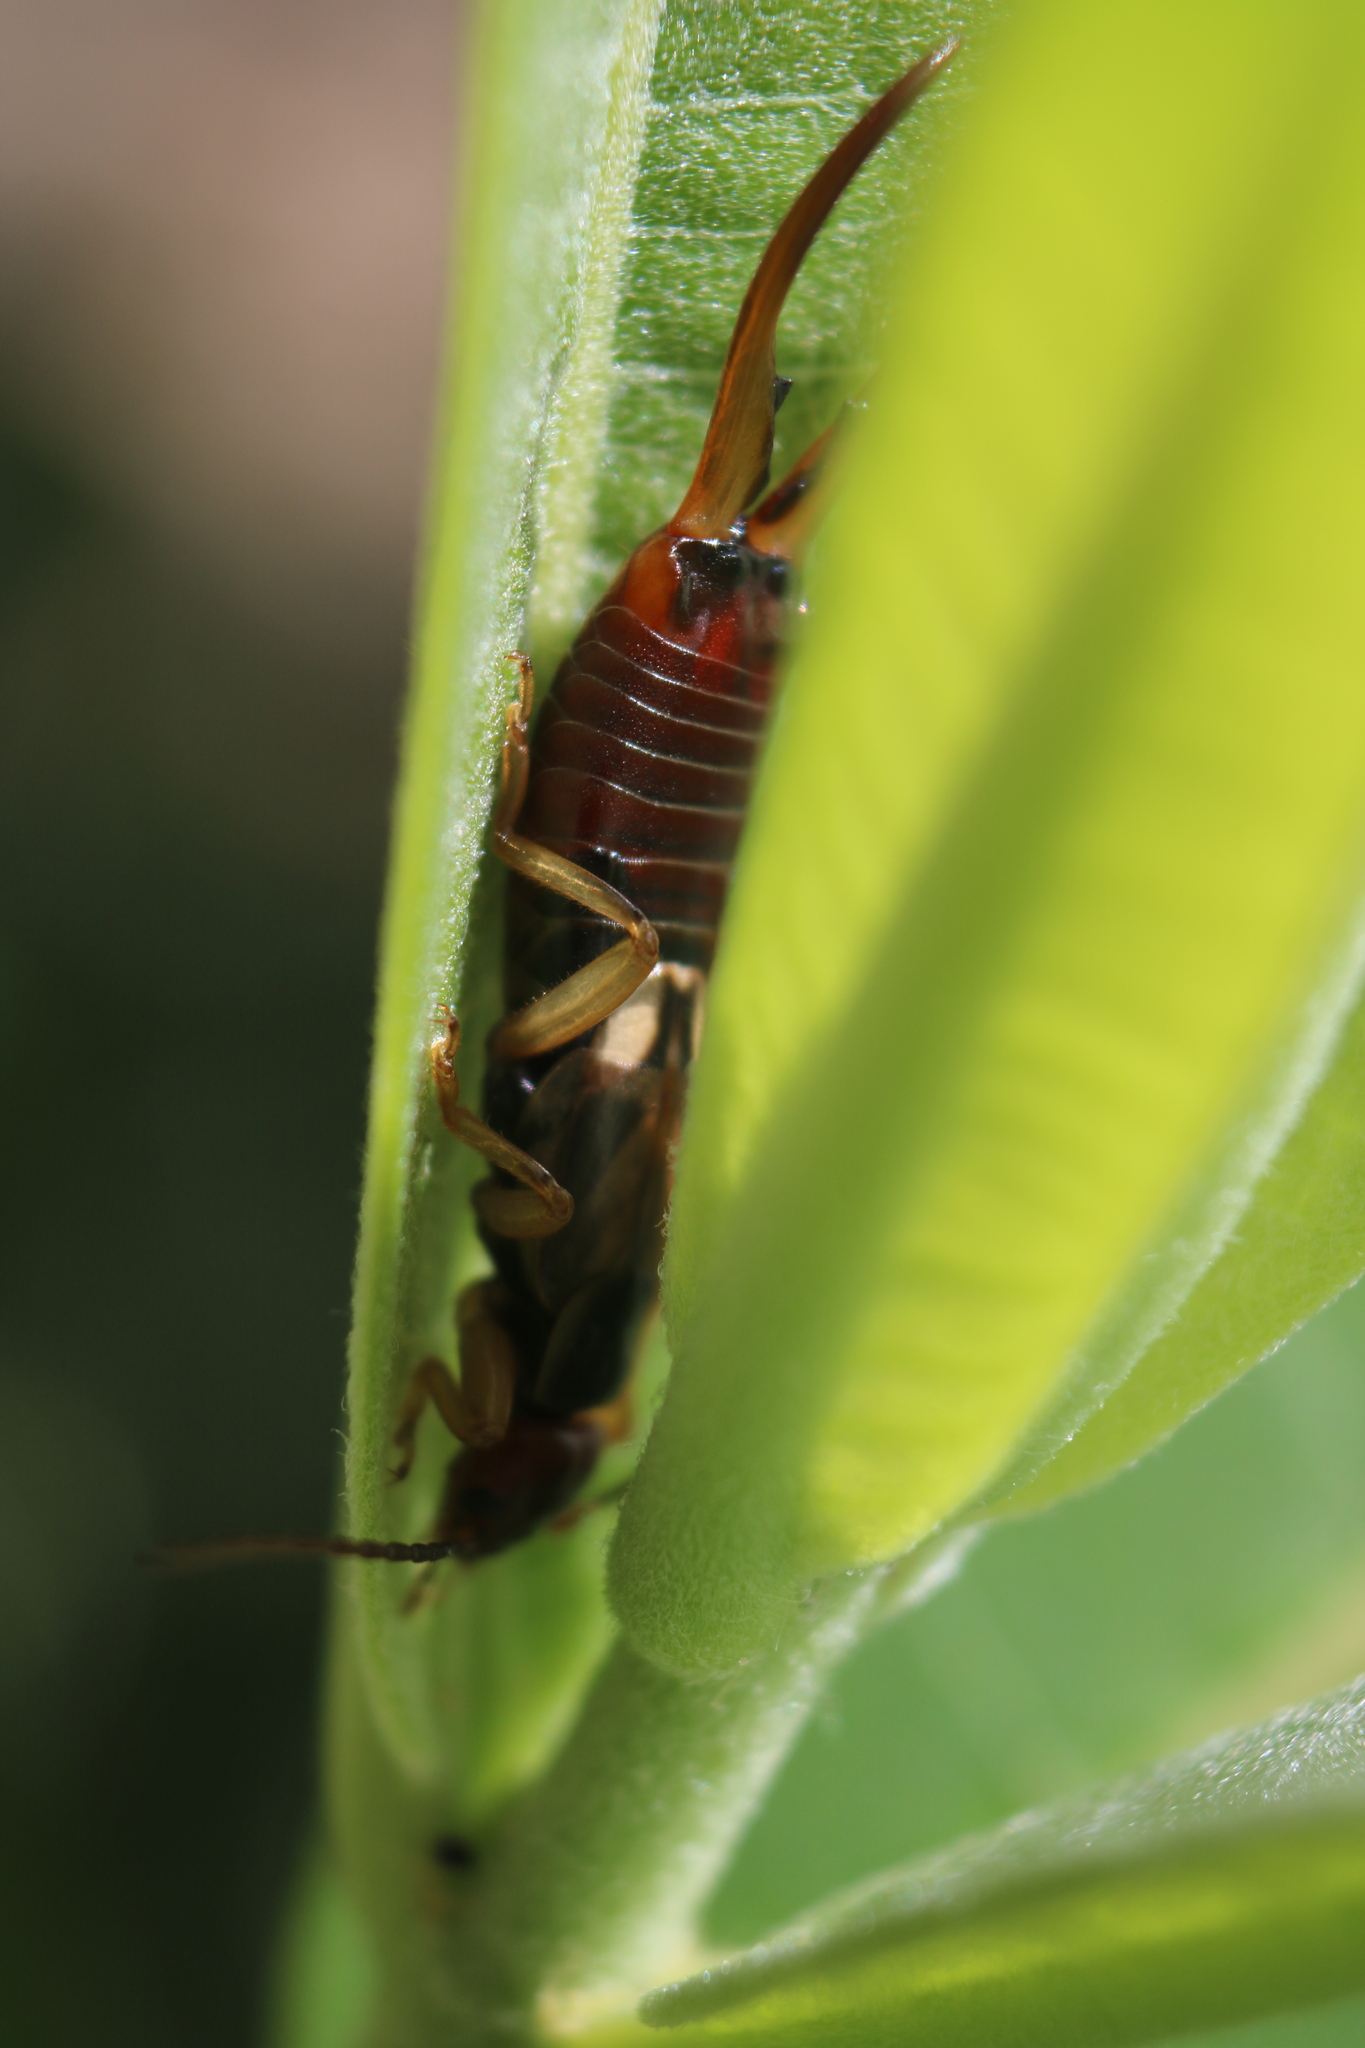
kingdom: Animalia
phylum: Arthropoda
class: Insecta
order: Dermaptera
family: Forficulidae
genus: Forficula
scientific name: Forficula
